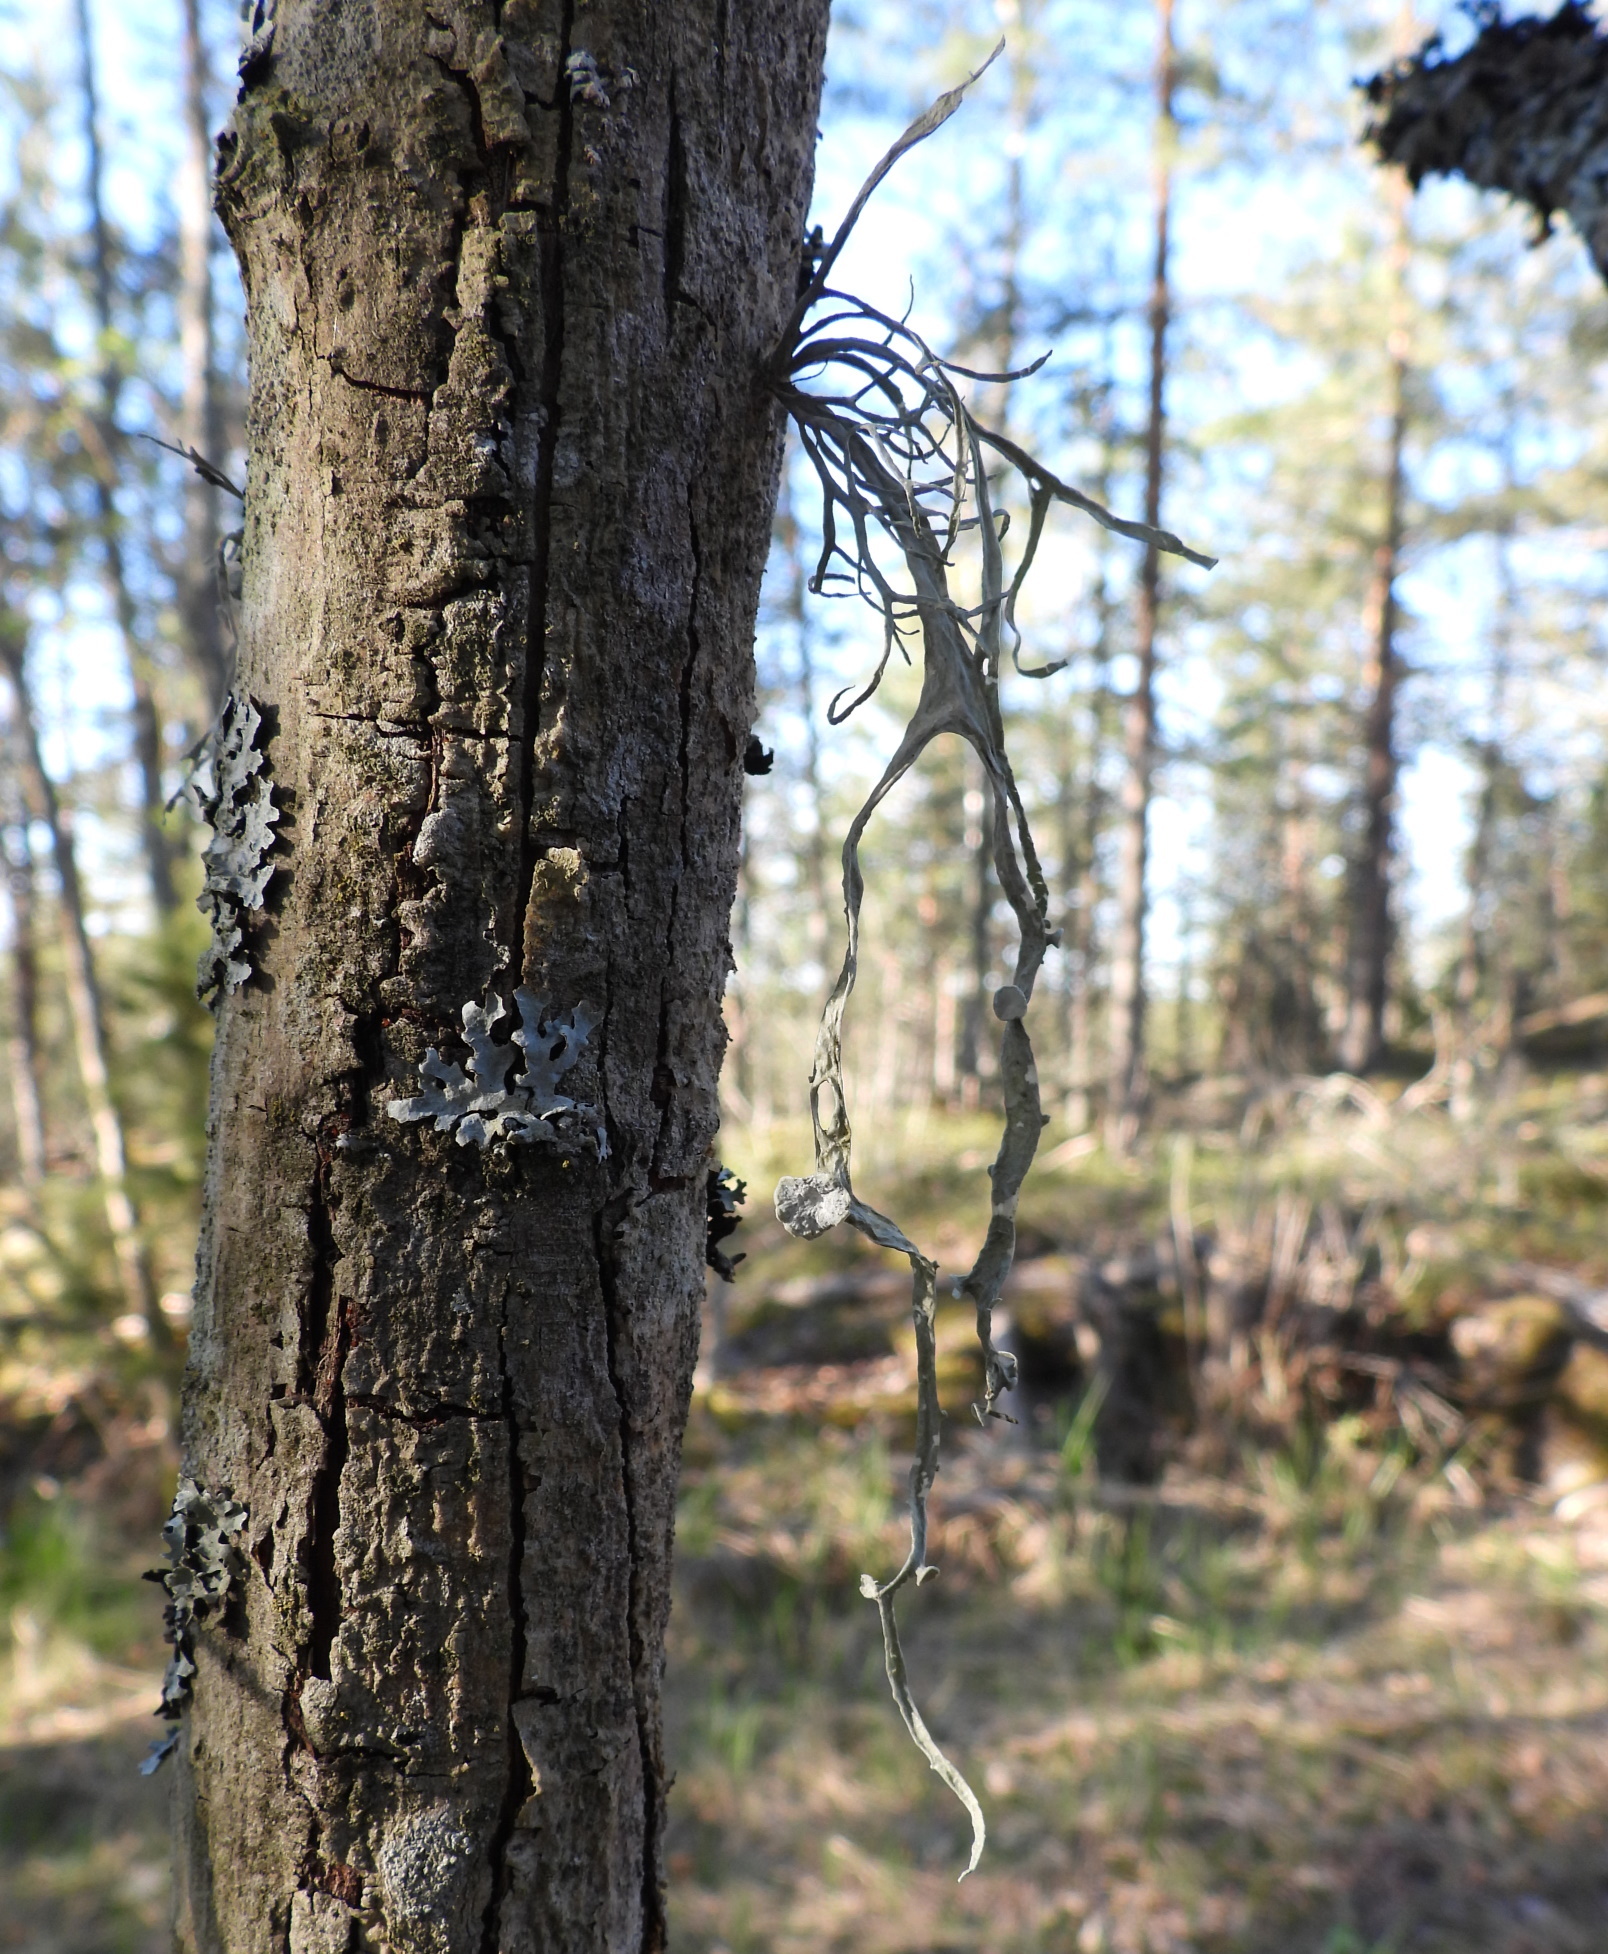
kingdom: Fungi
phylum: Ascomycota
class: Lecanoromycetes
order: Lecanorales
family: Ramalinaceae
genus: Ramalina
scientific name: Ramalina fraxinea
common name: Cartilage lichen
